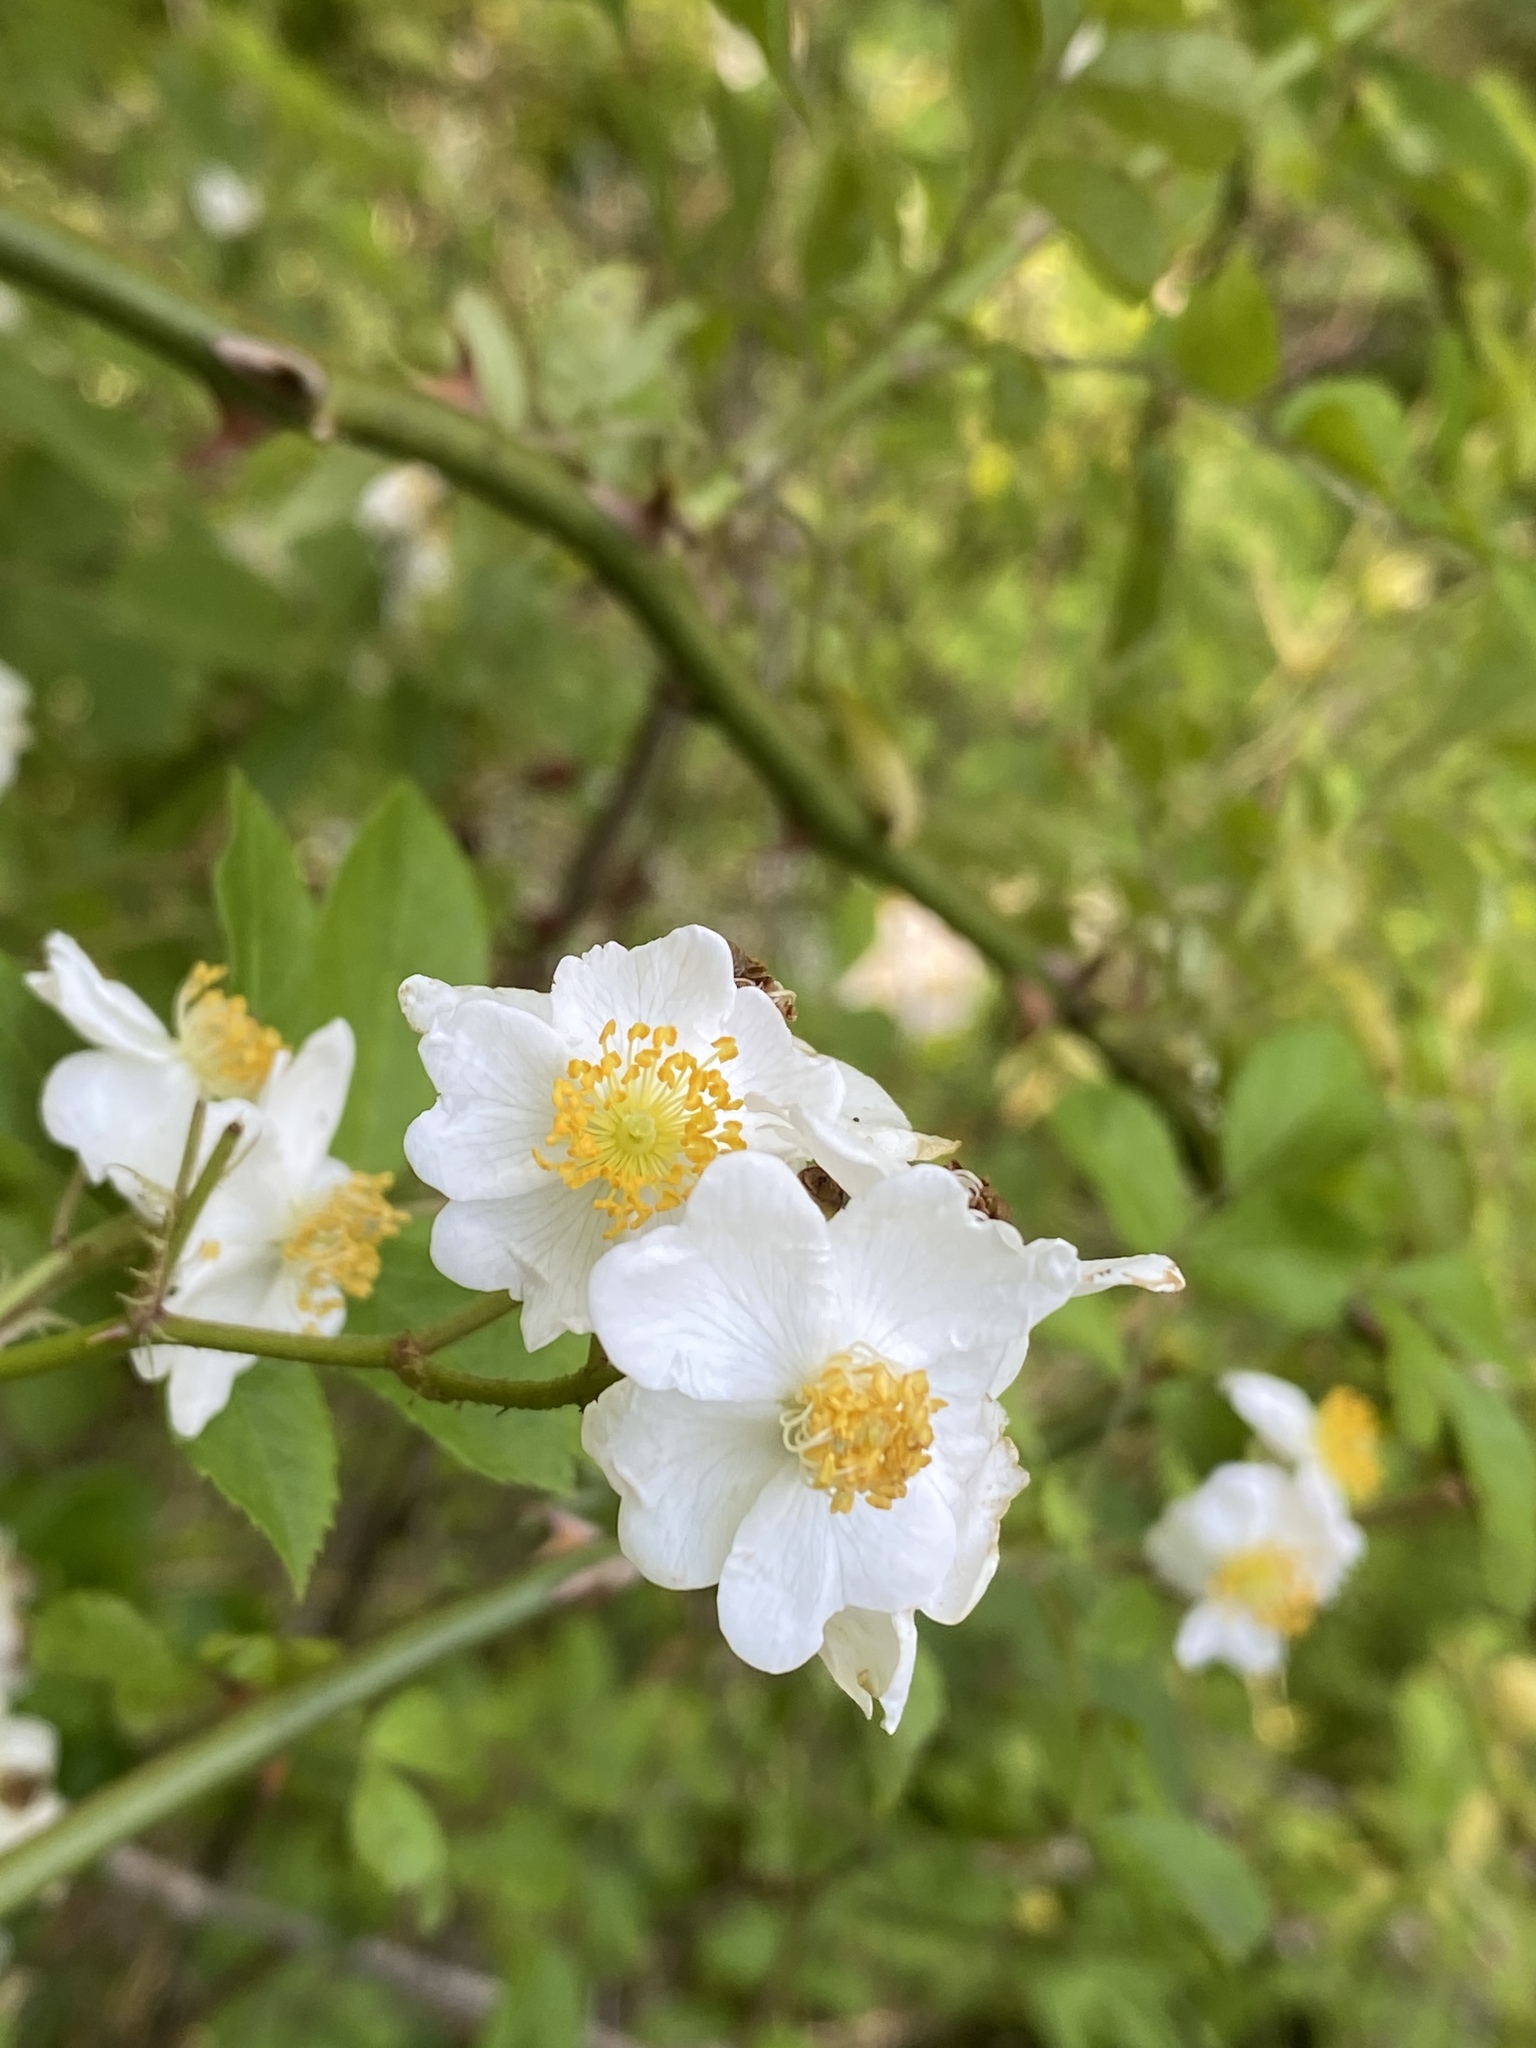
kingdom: Plantae
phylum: Tracheophyta
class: Magnoliopsida
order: Rosales
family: Rosaceae
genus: Rosa
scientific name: Rosa multiflora
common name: Multiflora rose
